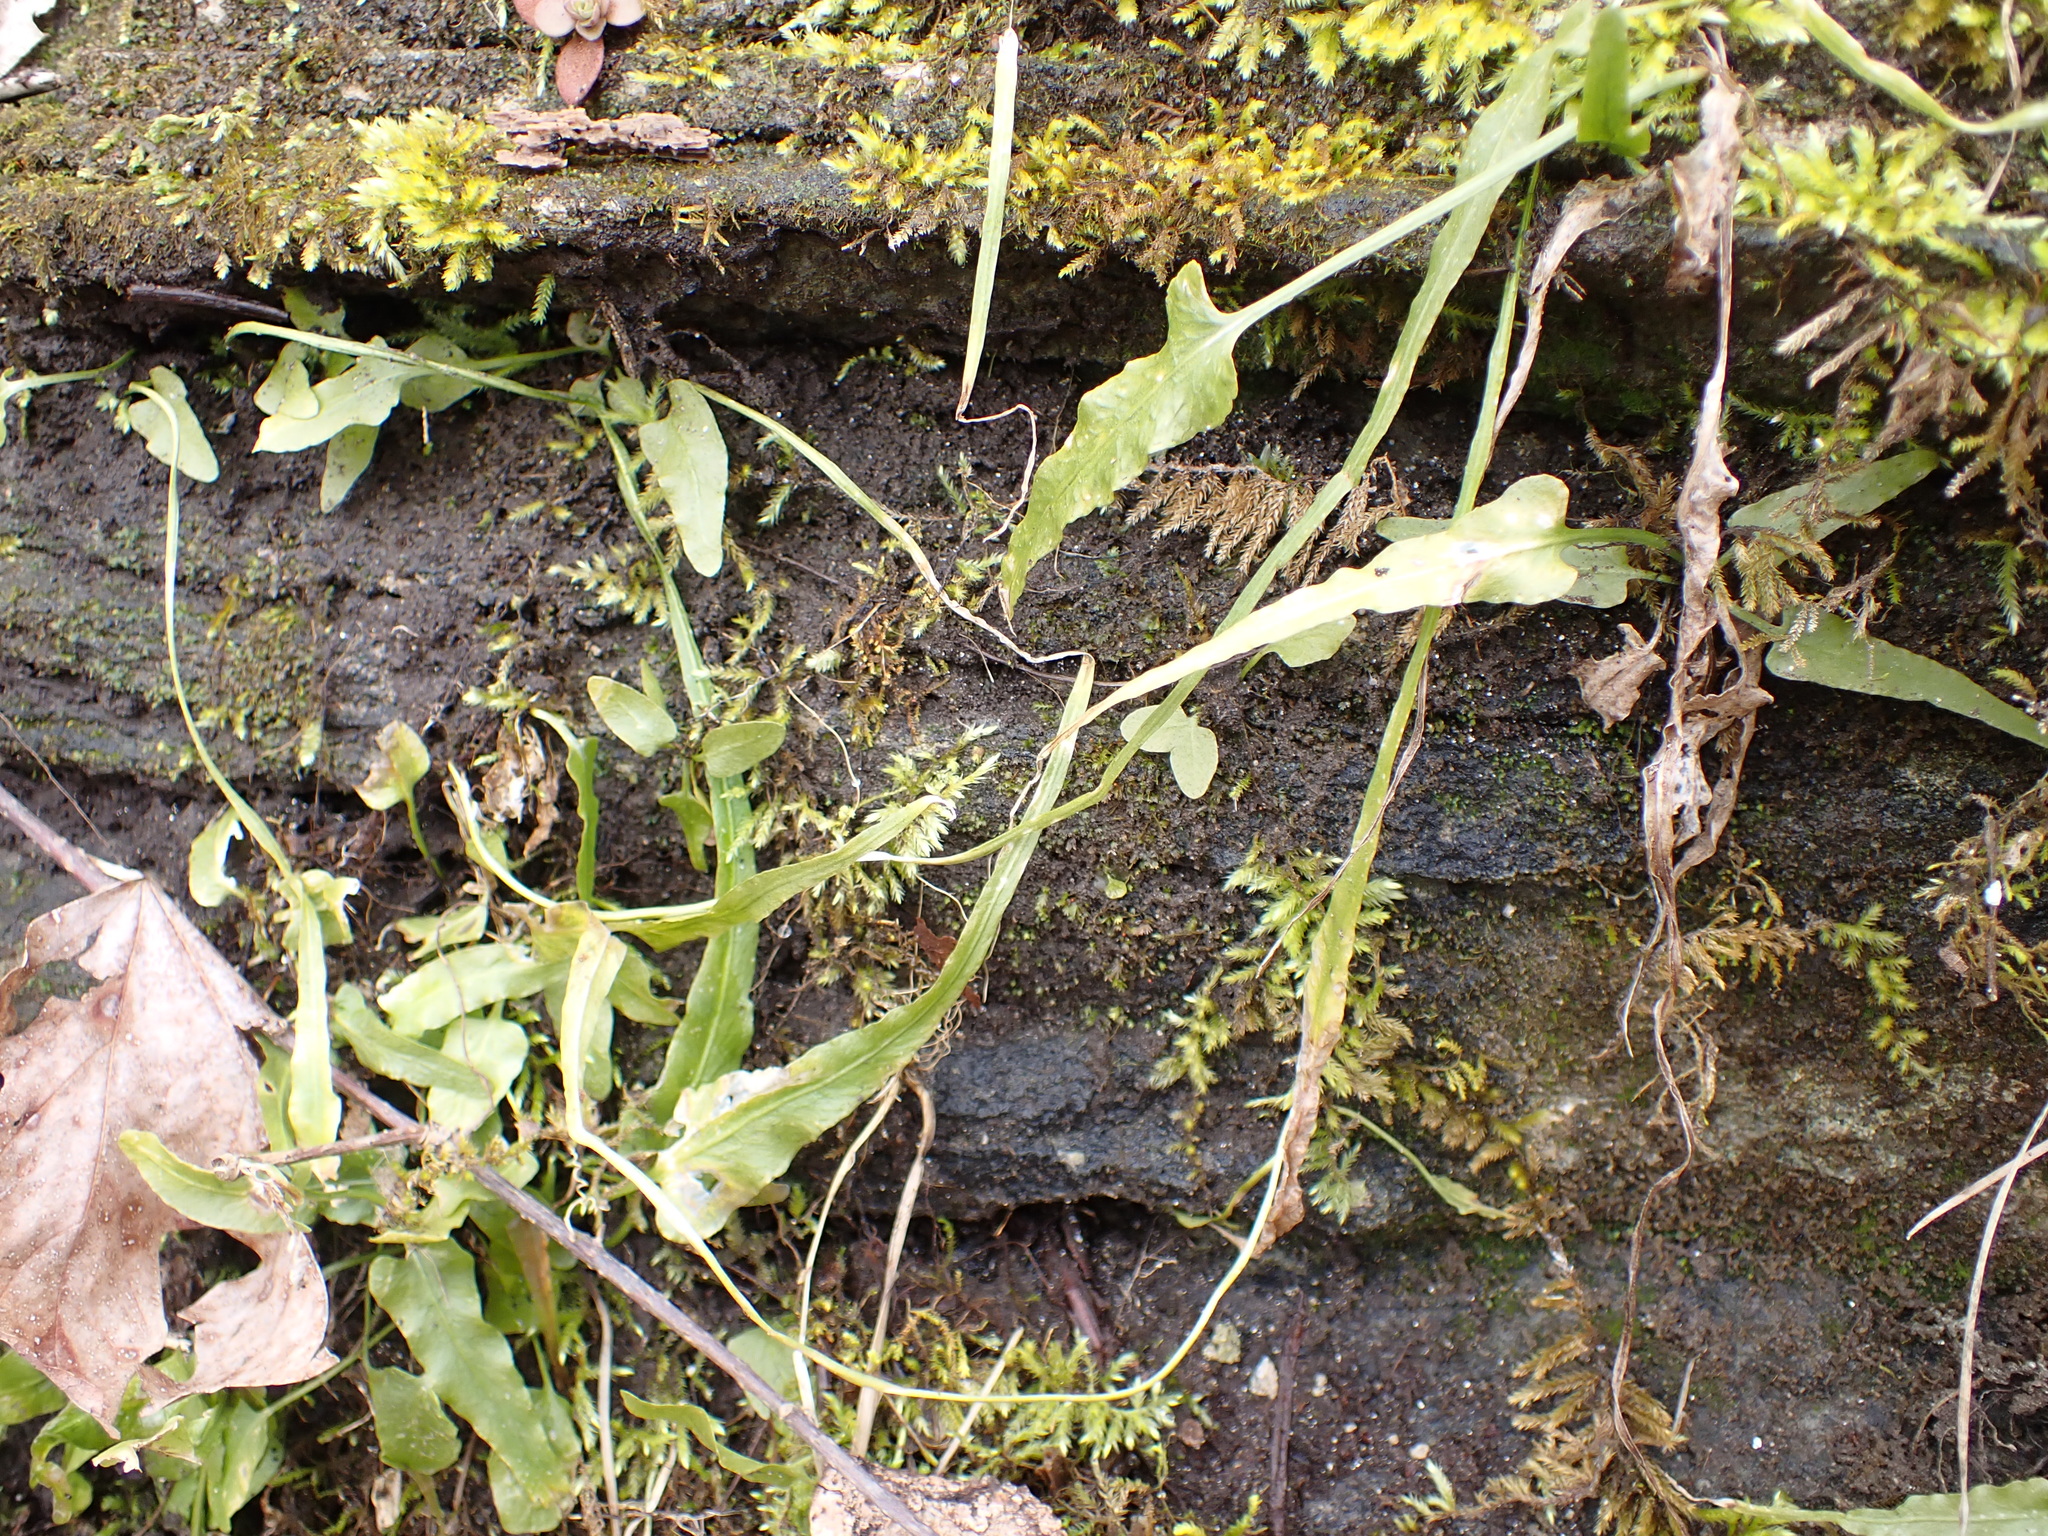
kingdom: Plantae
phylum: Tracheophyta
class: Polypodiopsida
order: Polypodiales
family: Aspleniaceae
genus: Asplenium
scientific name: Asplenium rhizophyllum
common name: Walking fern
